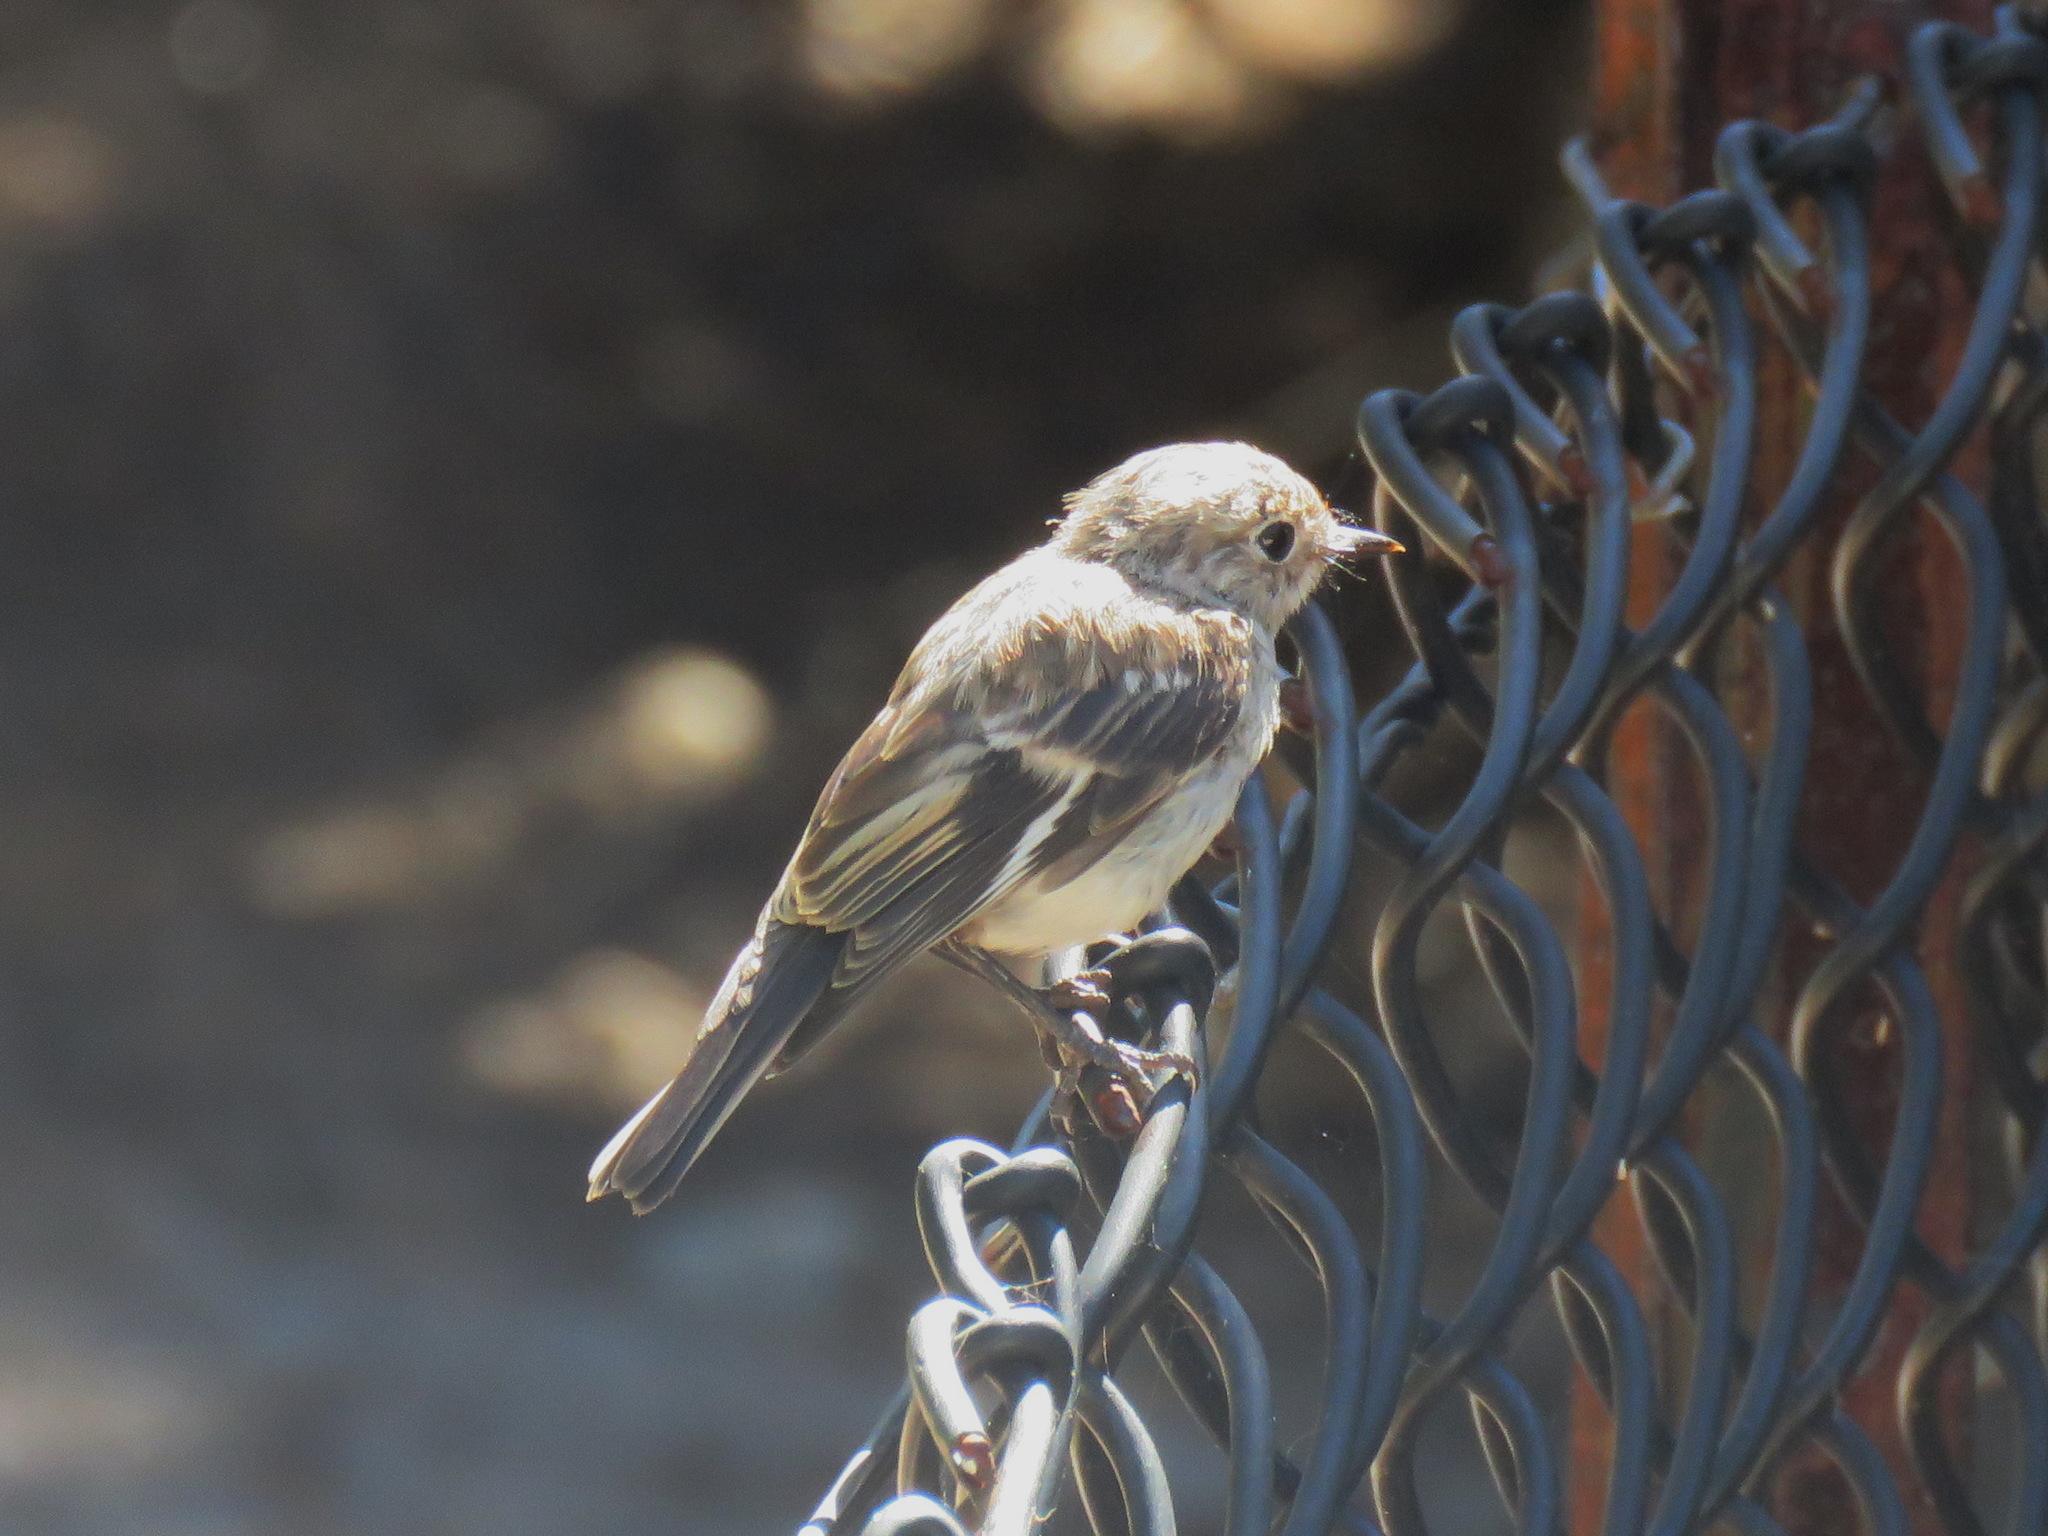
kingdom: Animalia
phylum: Chordata
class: Aves
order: Passeriformes
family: Petroicidae
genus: Petroica
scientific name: Petroica goodenovii
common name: Red-capped robin
